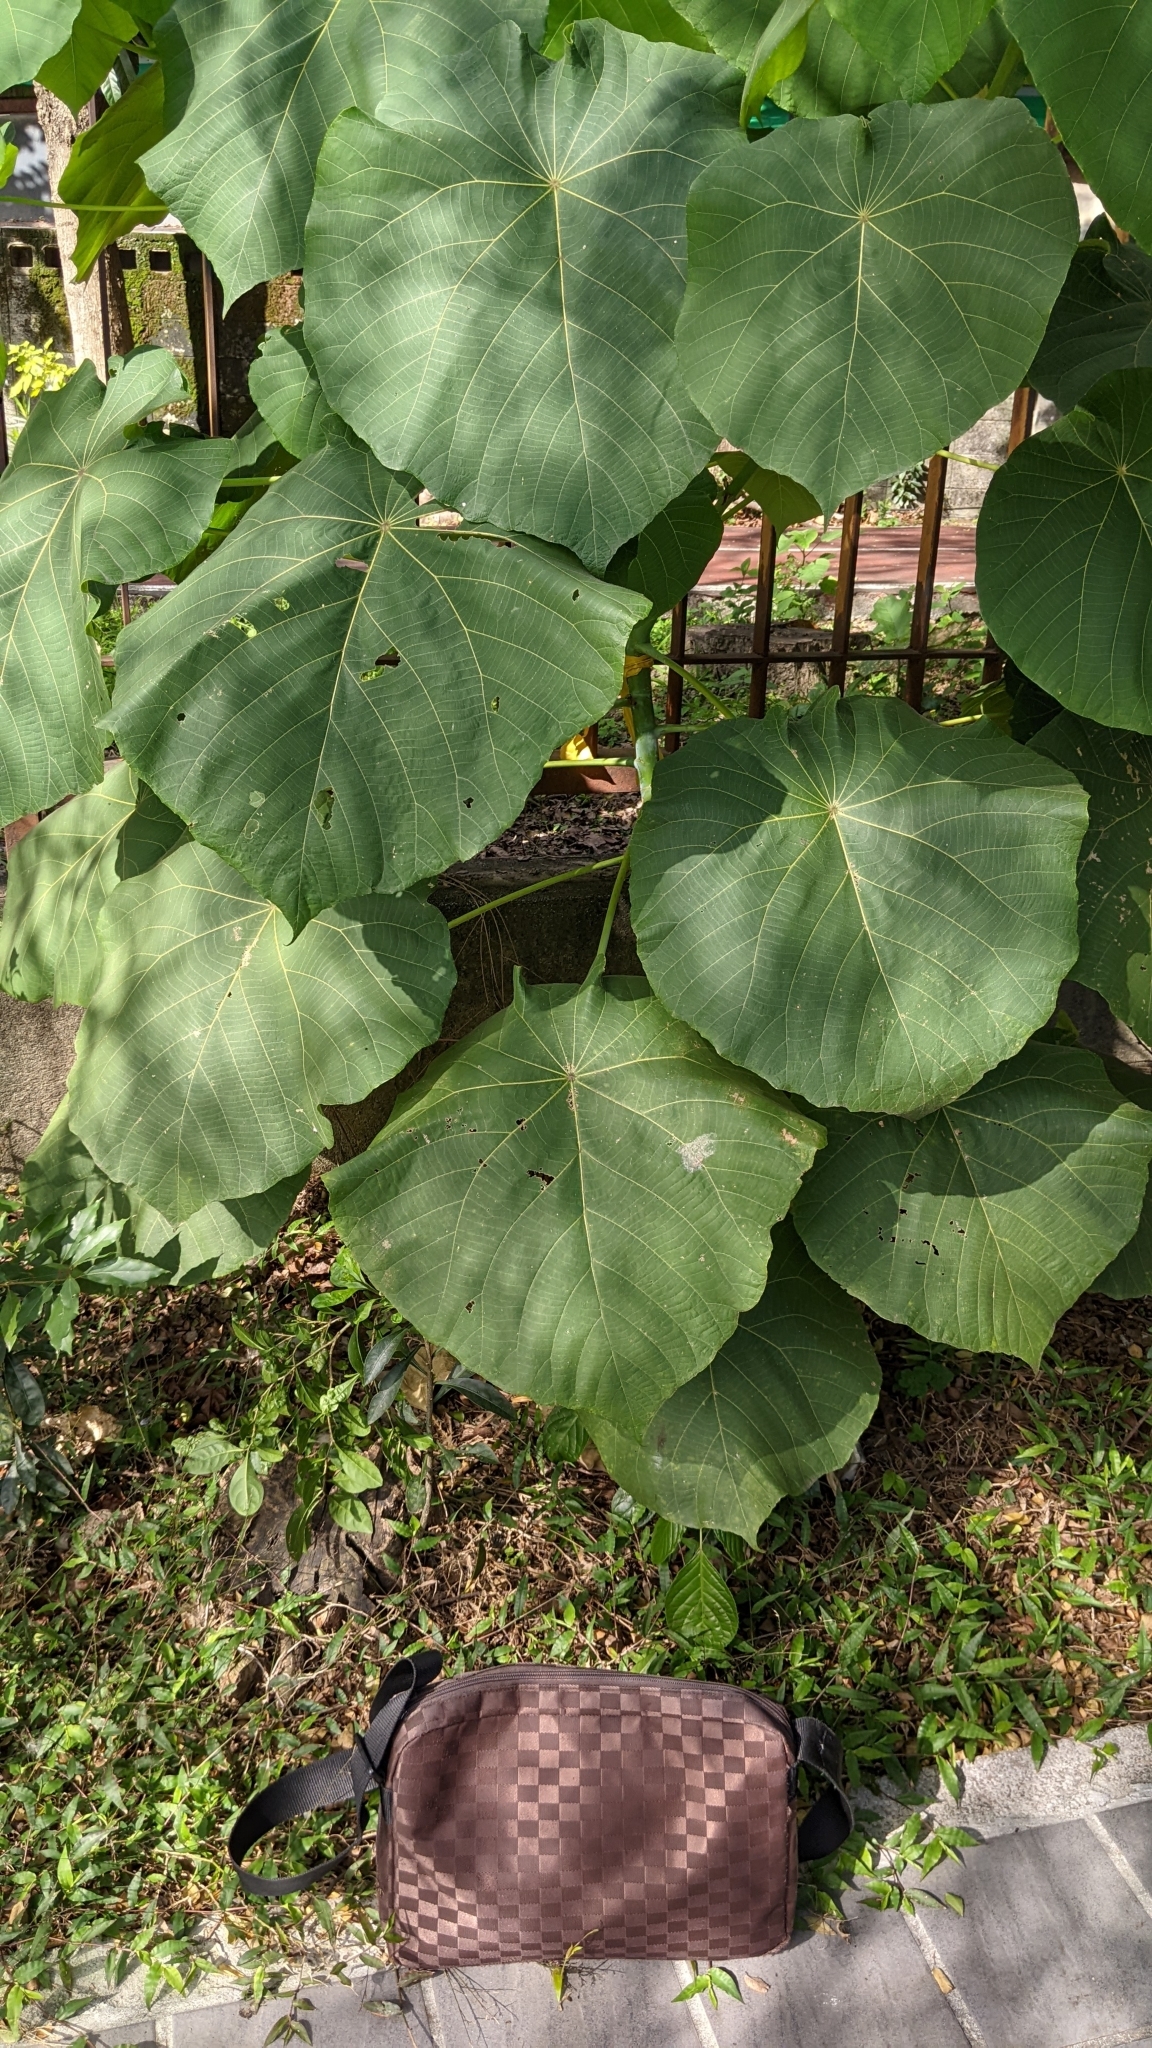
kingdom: Plantae
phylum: Tracheophyta
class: Magnoliopsida
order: Malpighiales
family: Euphorbiaceae
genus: Macaranga
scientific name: Macaranga tanarius
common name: Parasol leaf tree
